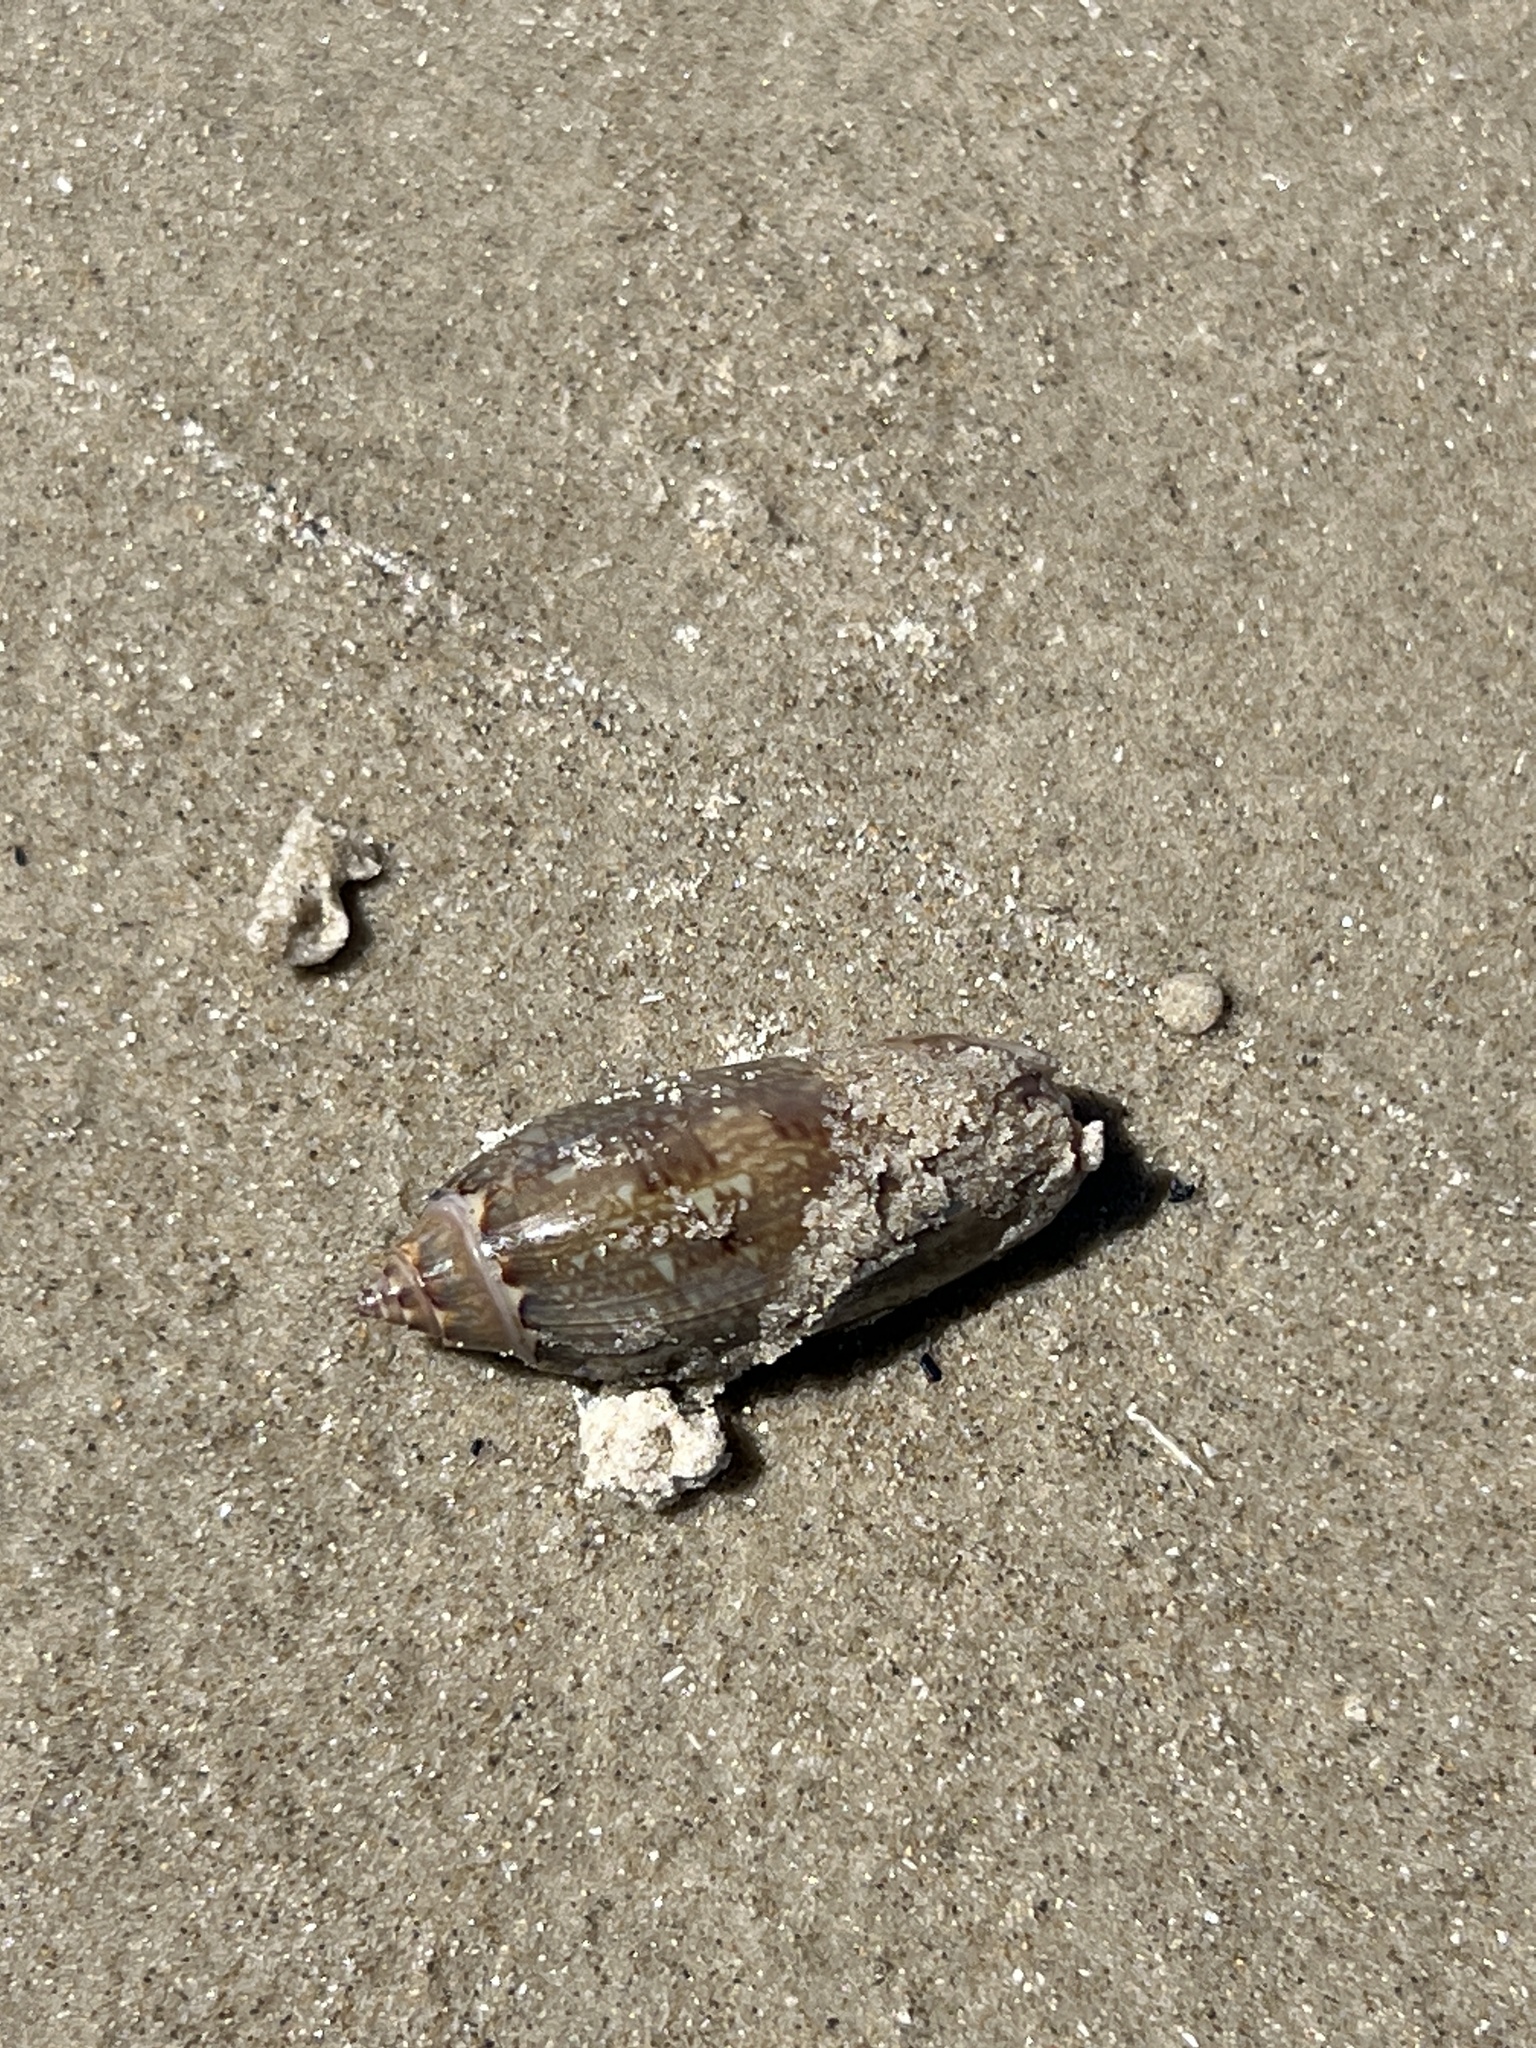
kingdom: Animalia
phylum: Mollusca
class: Gastropoda
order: Neogastropoda
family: Olividae
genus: Oliva
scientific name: Oliva sayana
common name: Lettered olive
